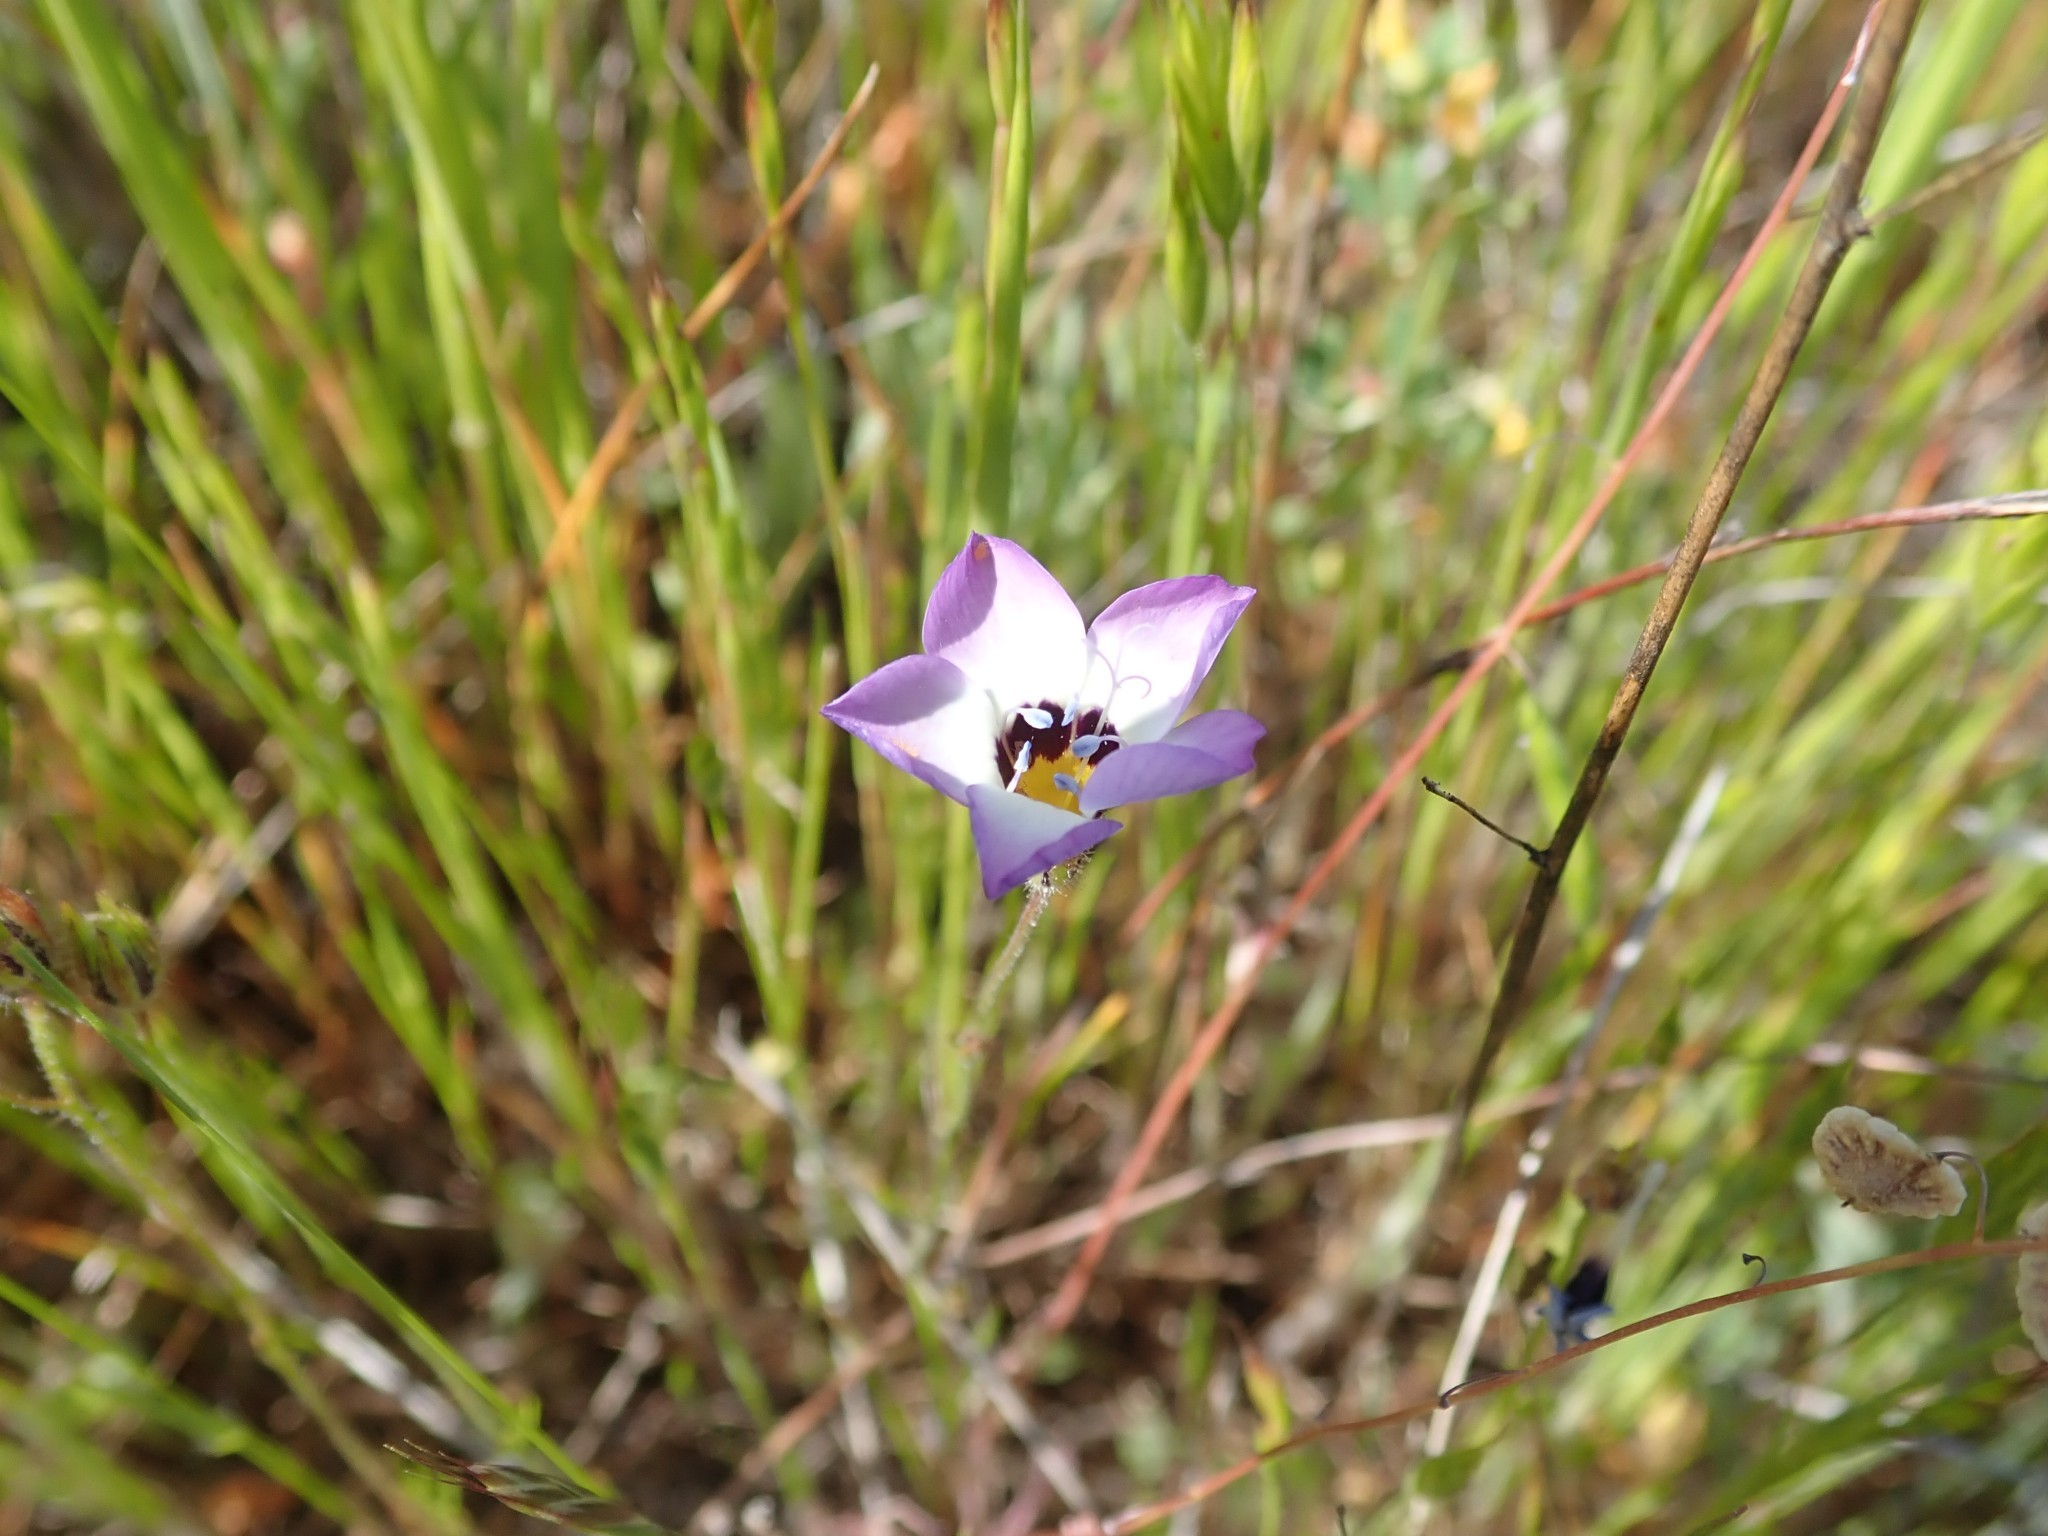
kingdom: Plantae
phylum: Tracheophyta
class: Magnoliopsida
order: Ericales
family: Polemoniaceae
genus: Gilia
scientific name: Gilia tricolor
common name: Bird's-eyes
